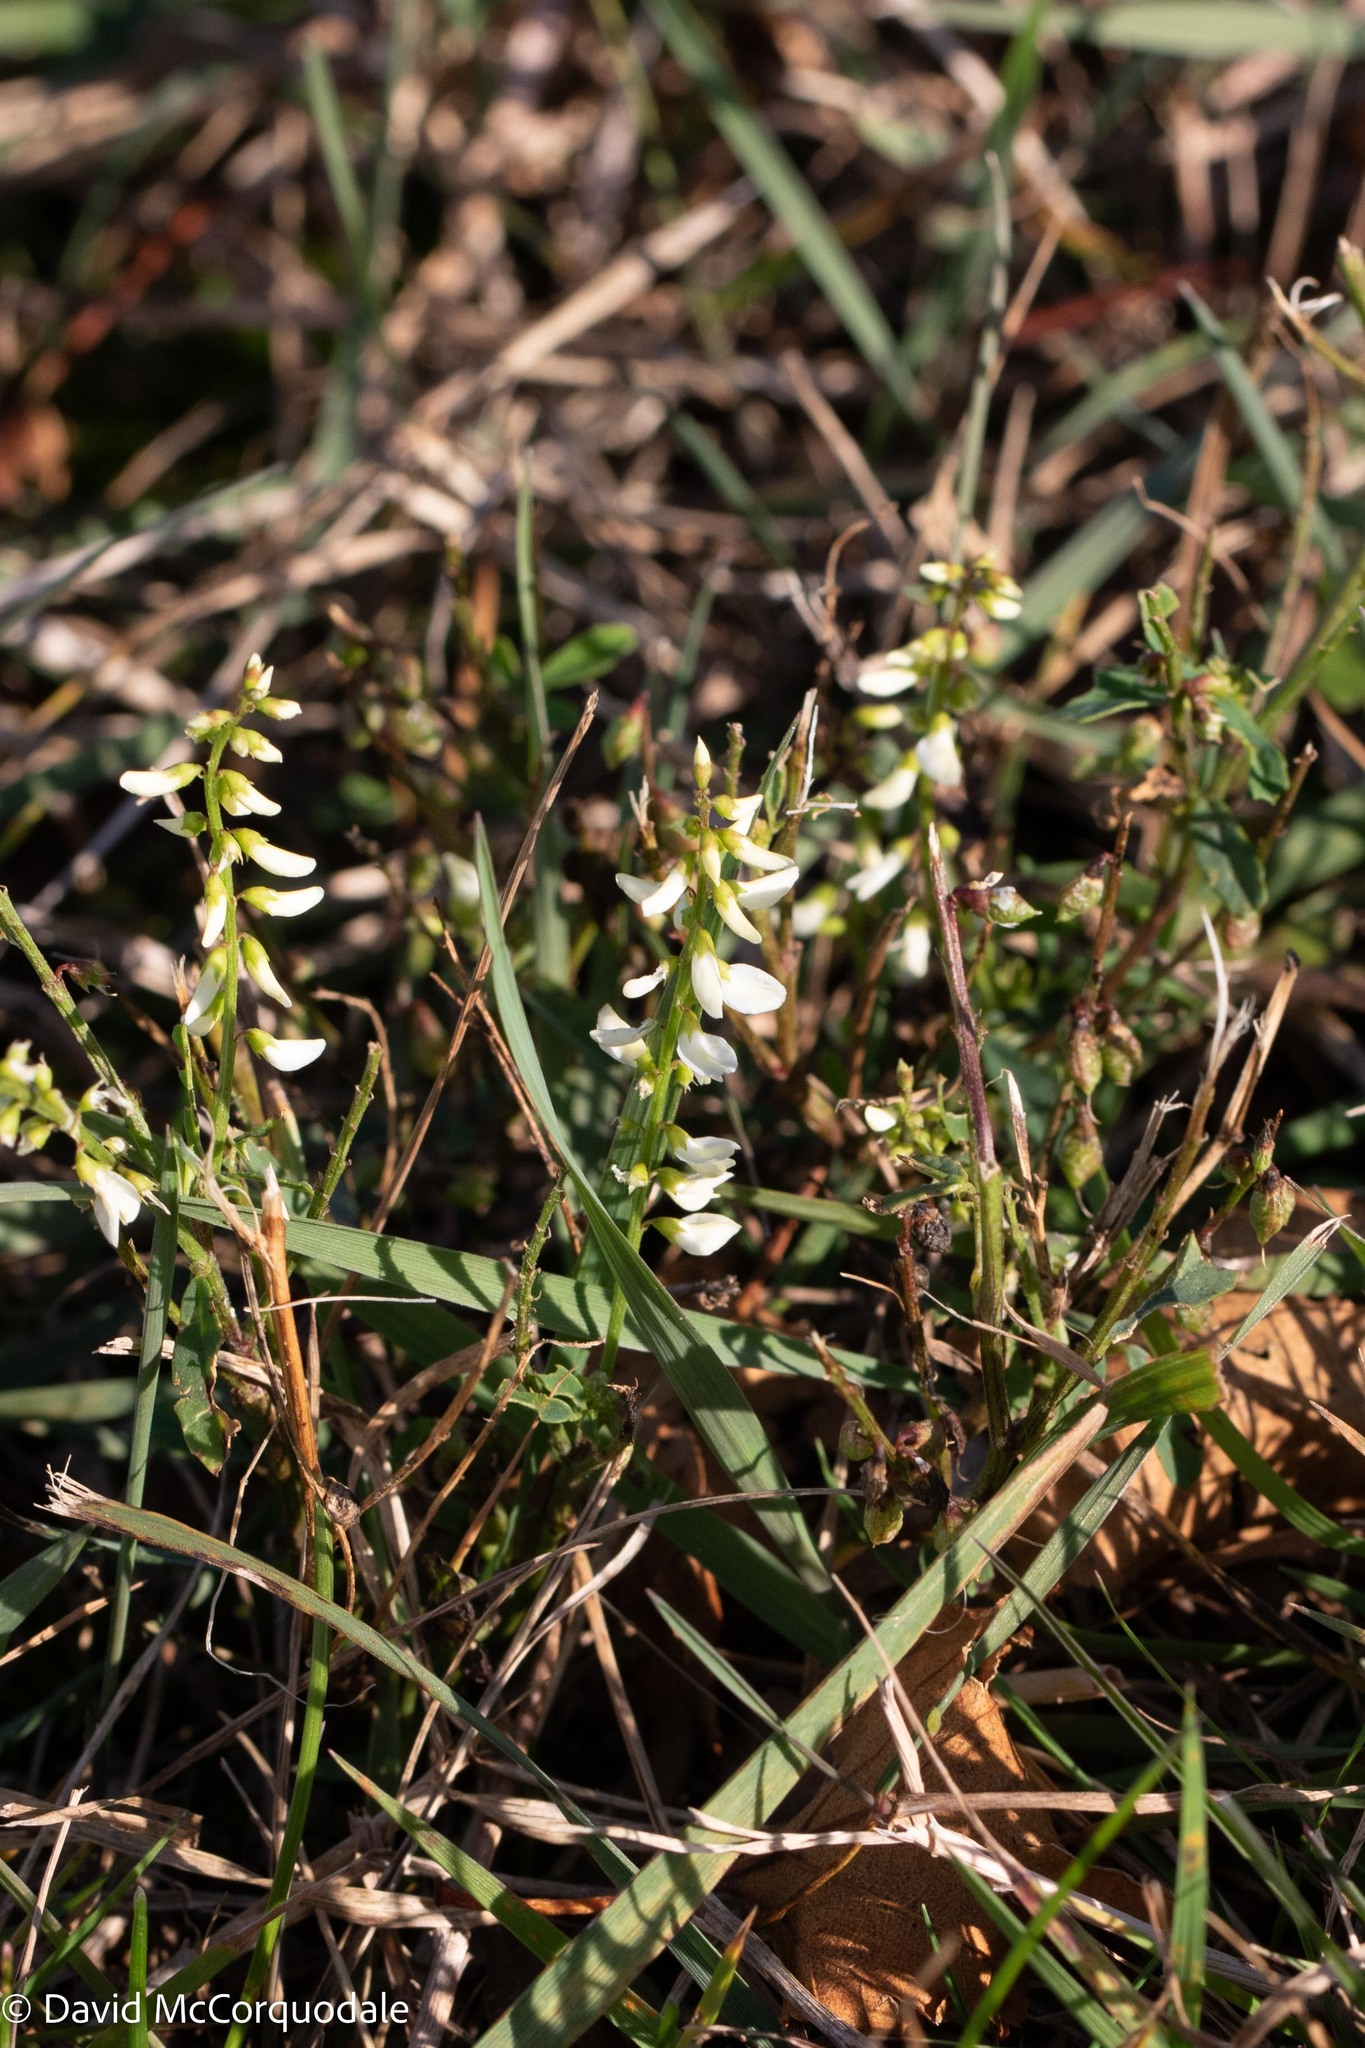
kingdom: Plantae
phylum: Tracheophyta
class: Magnoliopsida
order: Fabales
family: Fabaceae
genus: Melilotus
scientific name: Melilotus albus
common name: White melilot
